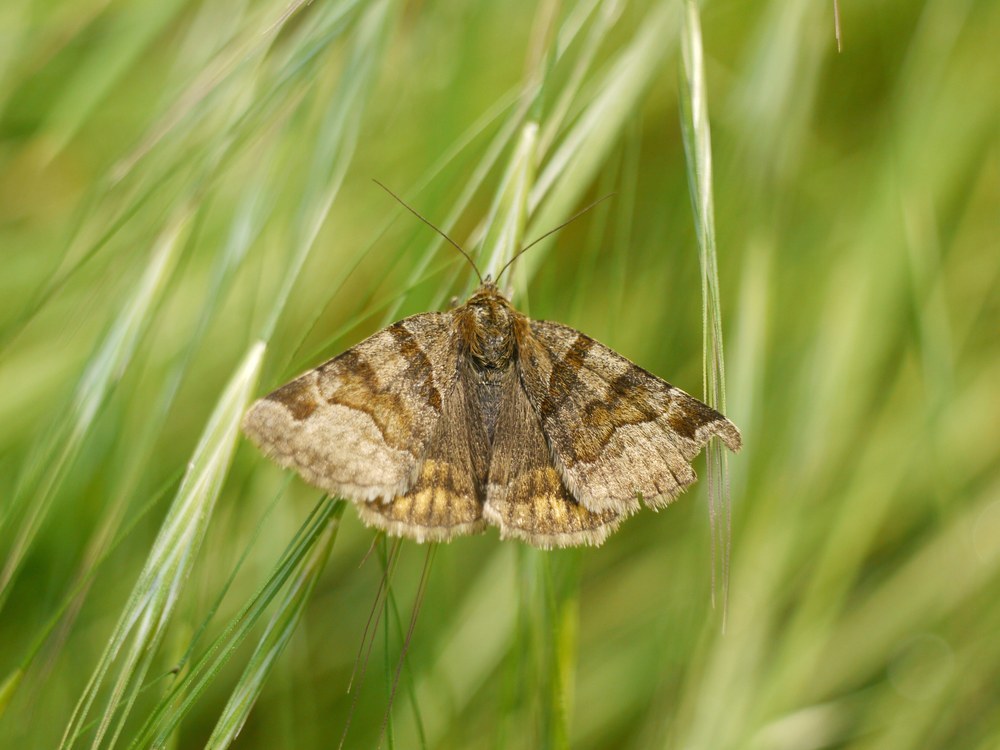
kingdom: Animalia
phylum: Arthropoda
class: Insecta
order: Lepidoptera
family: Erebidae
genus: Euclidia
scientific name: Euclidia glyphica
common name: Burnet companion
